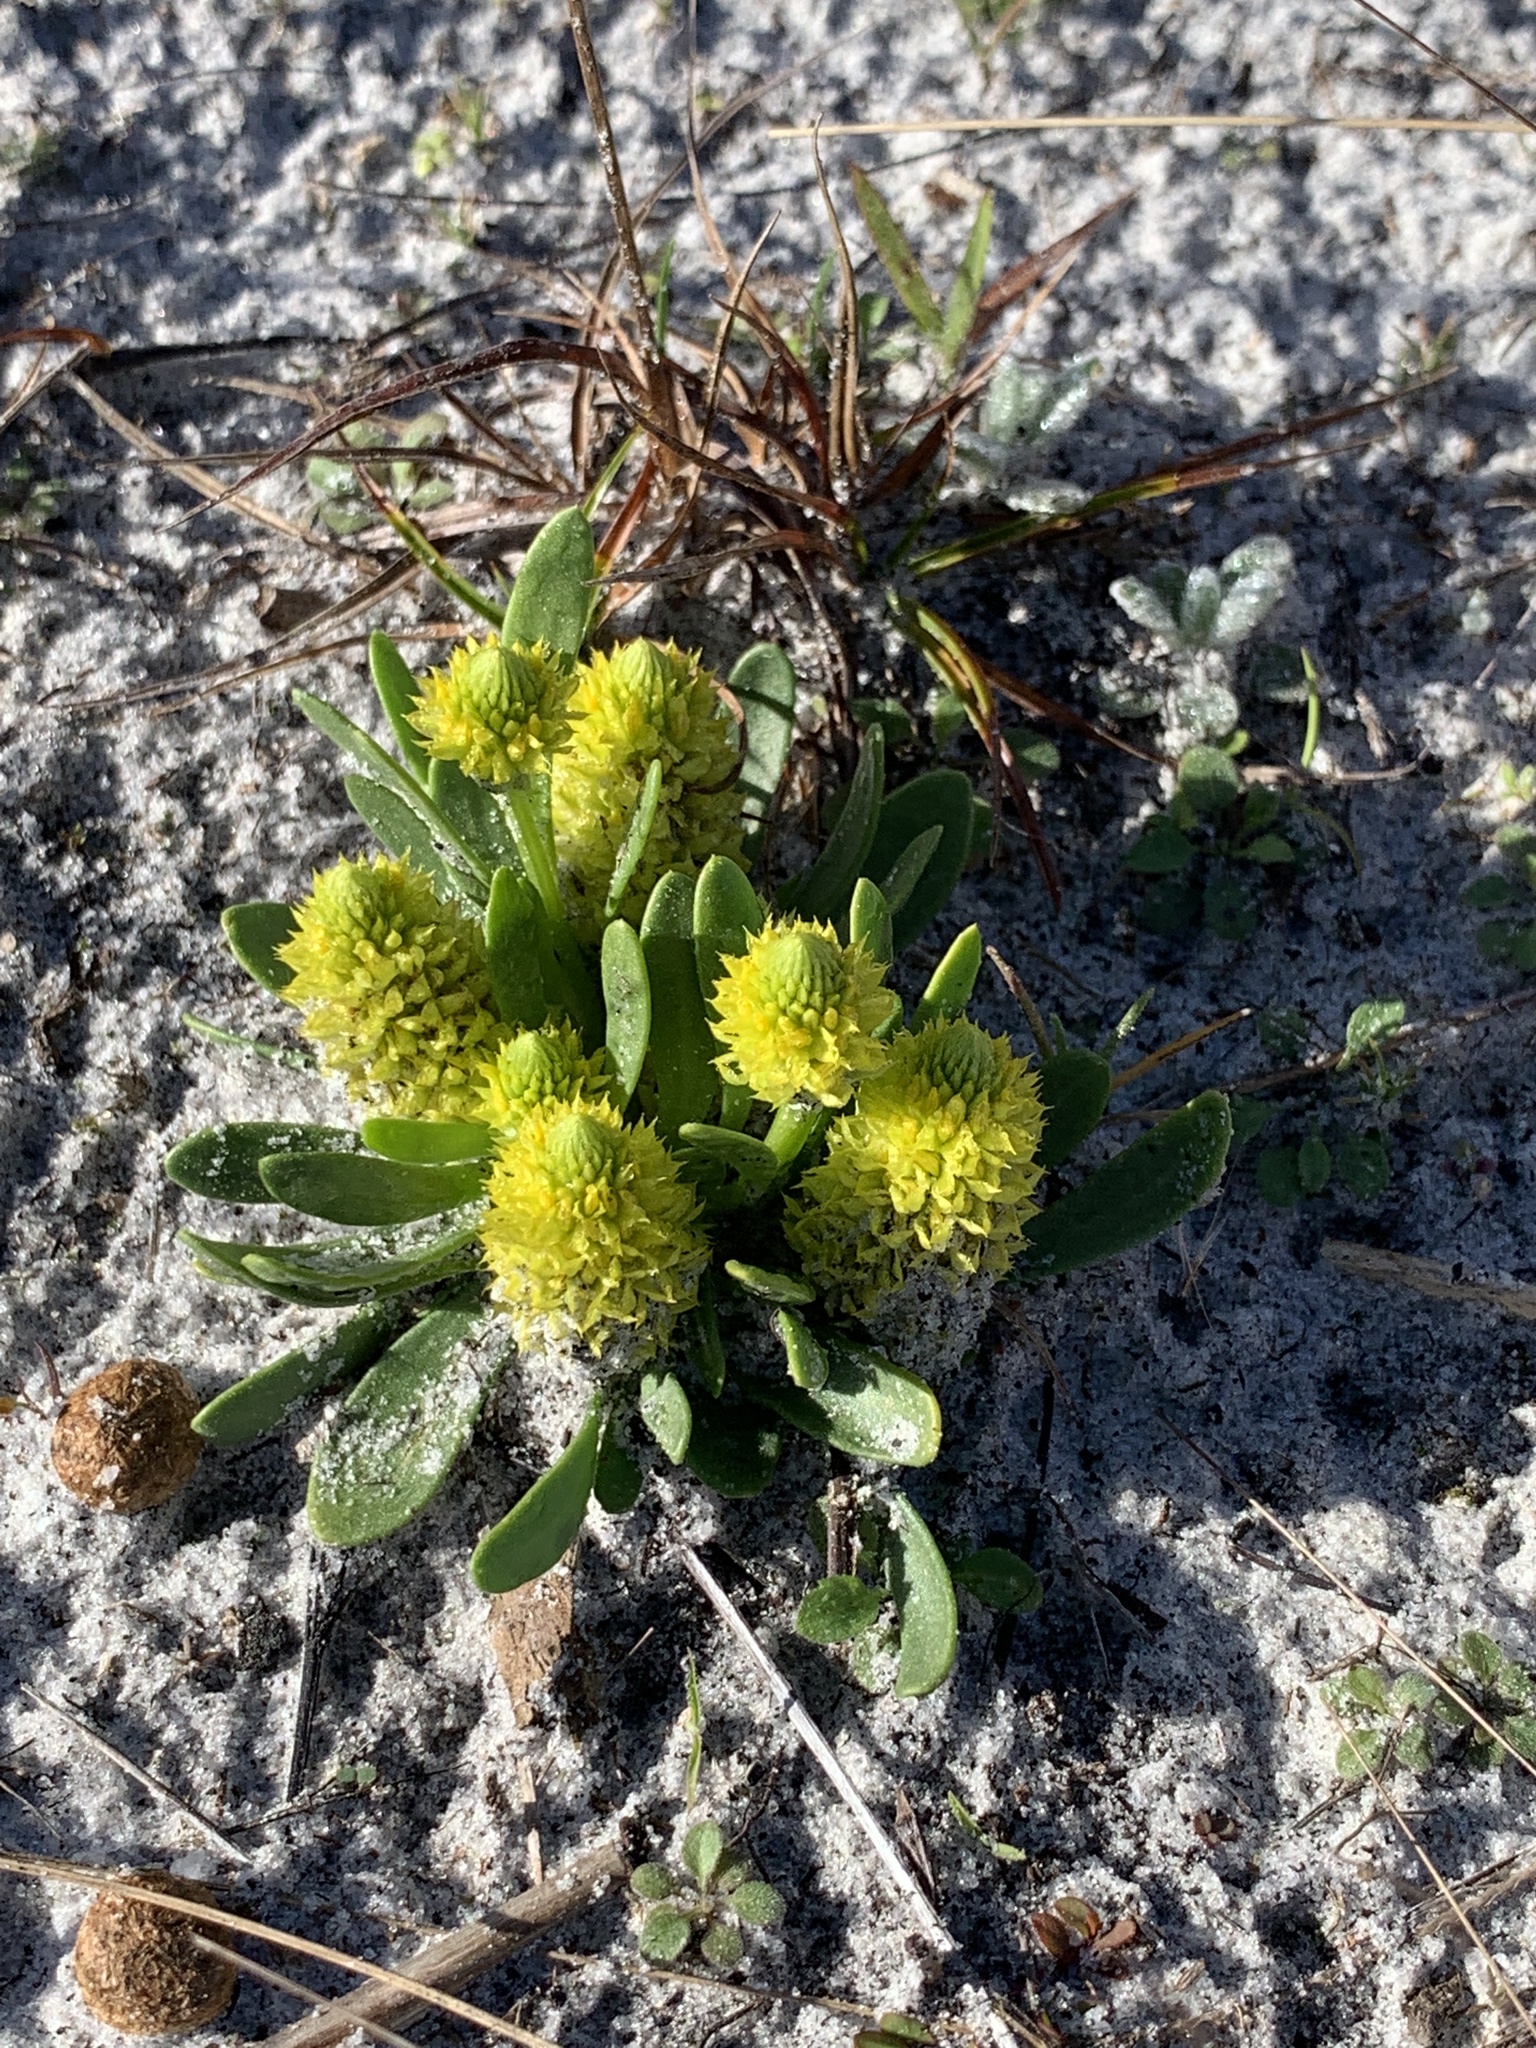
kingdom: Plantae
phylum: Tracheophyta
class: Magnoliopsida
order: Fabales
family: Polygalaceae
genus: Polygala
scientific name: Polygala nana
